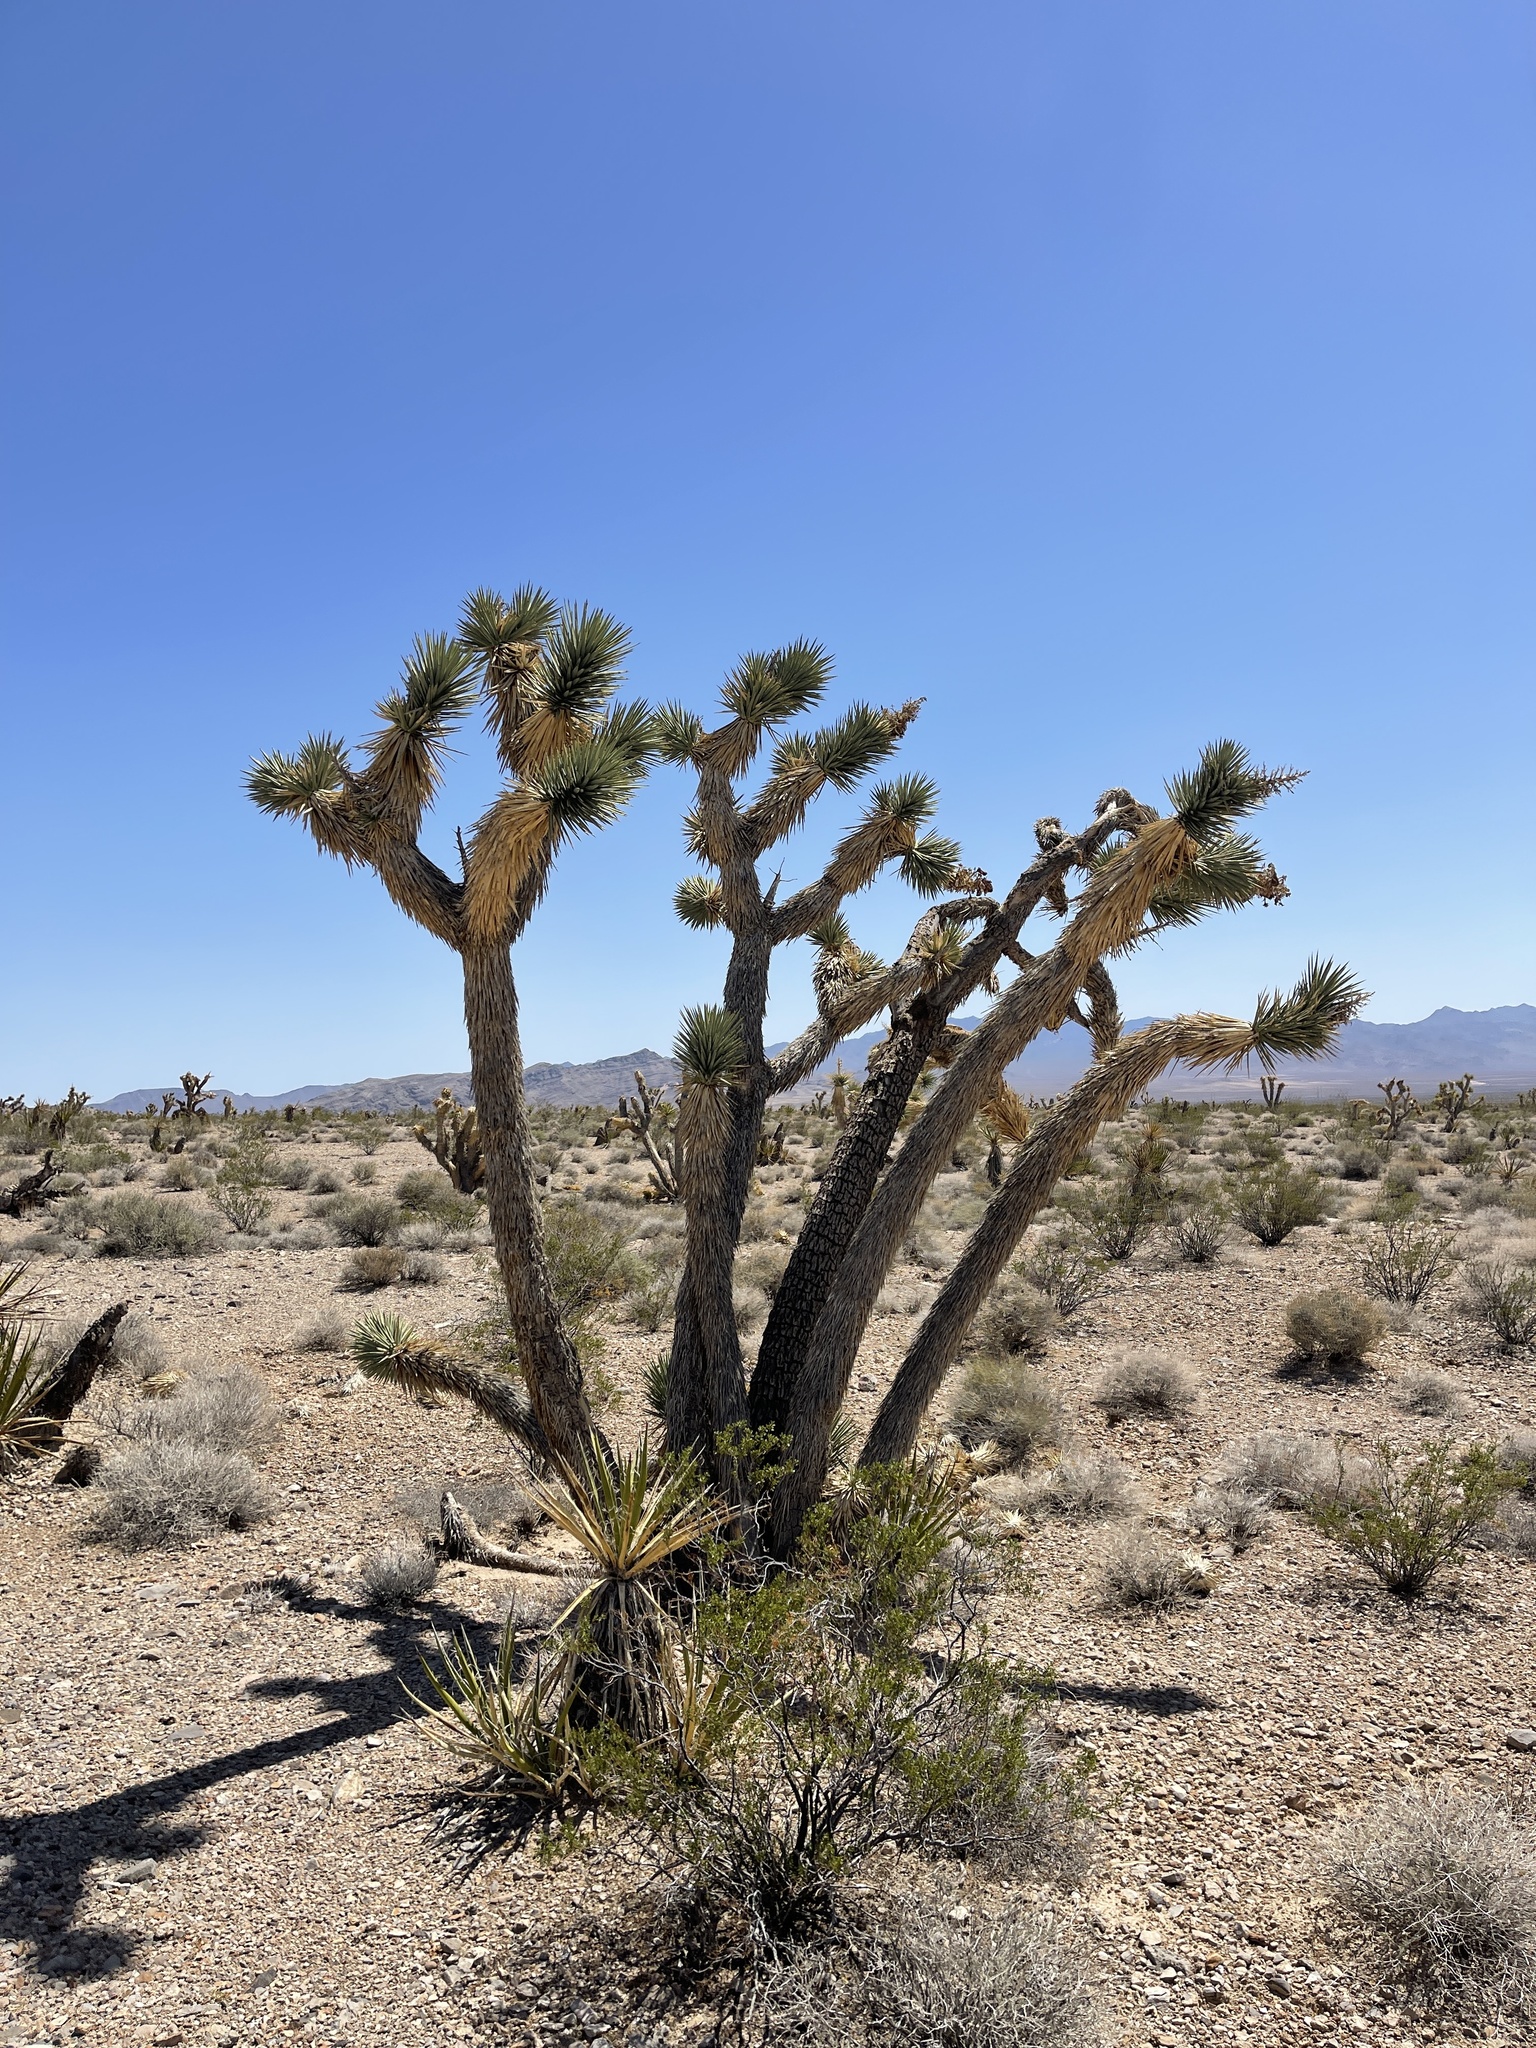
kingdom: Plantae
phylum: Tracheophyta
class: Liliopsida
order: Asparagales
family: Asparagaceae
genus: Yucca
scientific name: Yucca brevifolia
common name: Joshua tree
